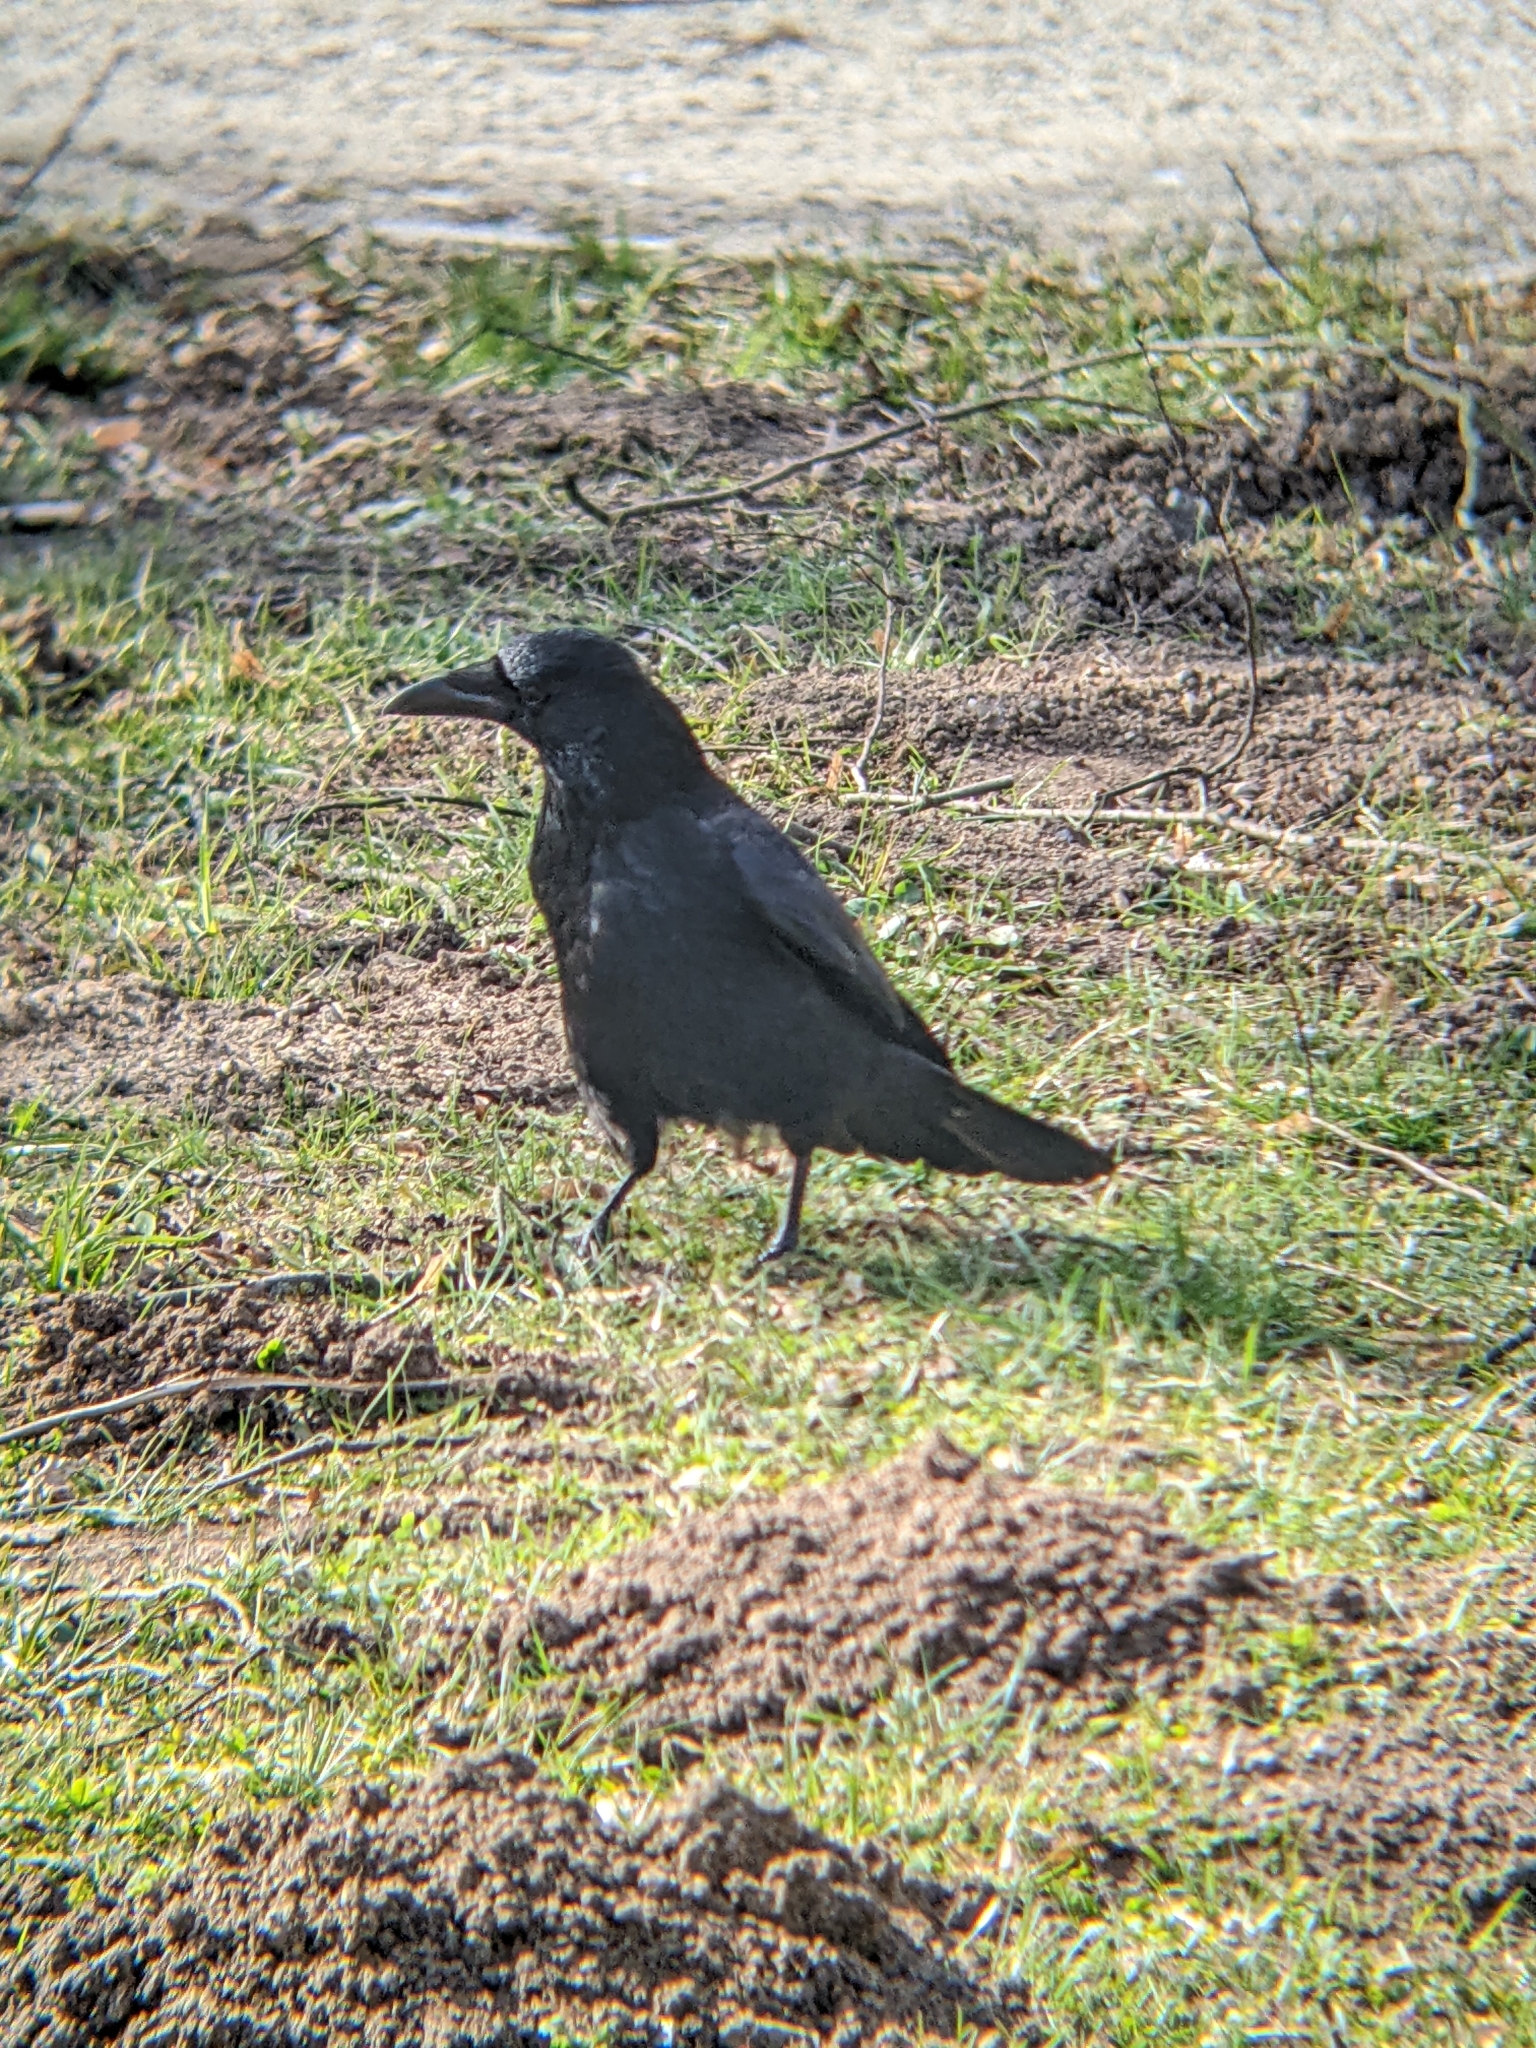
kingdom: Animalia
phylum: Chordata
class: Aves
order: Passeriformes
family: Corvidae
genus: Corvus
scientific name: Corvus corone
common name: Carrion crow
